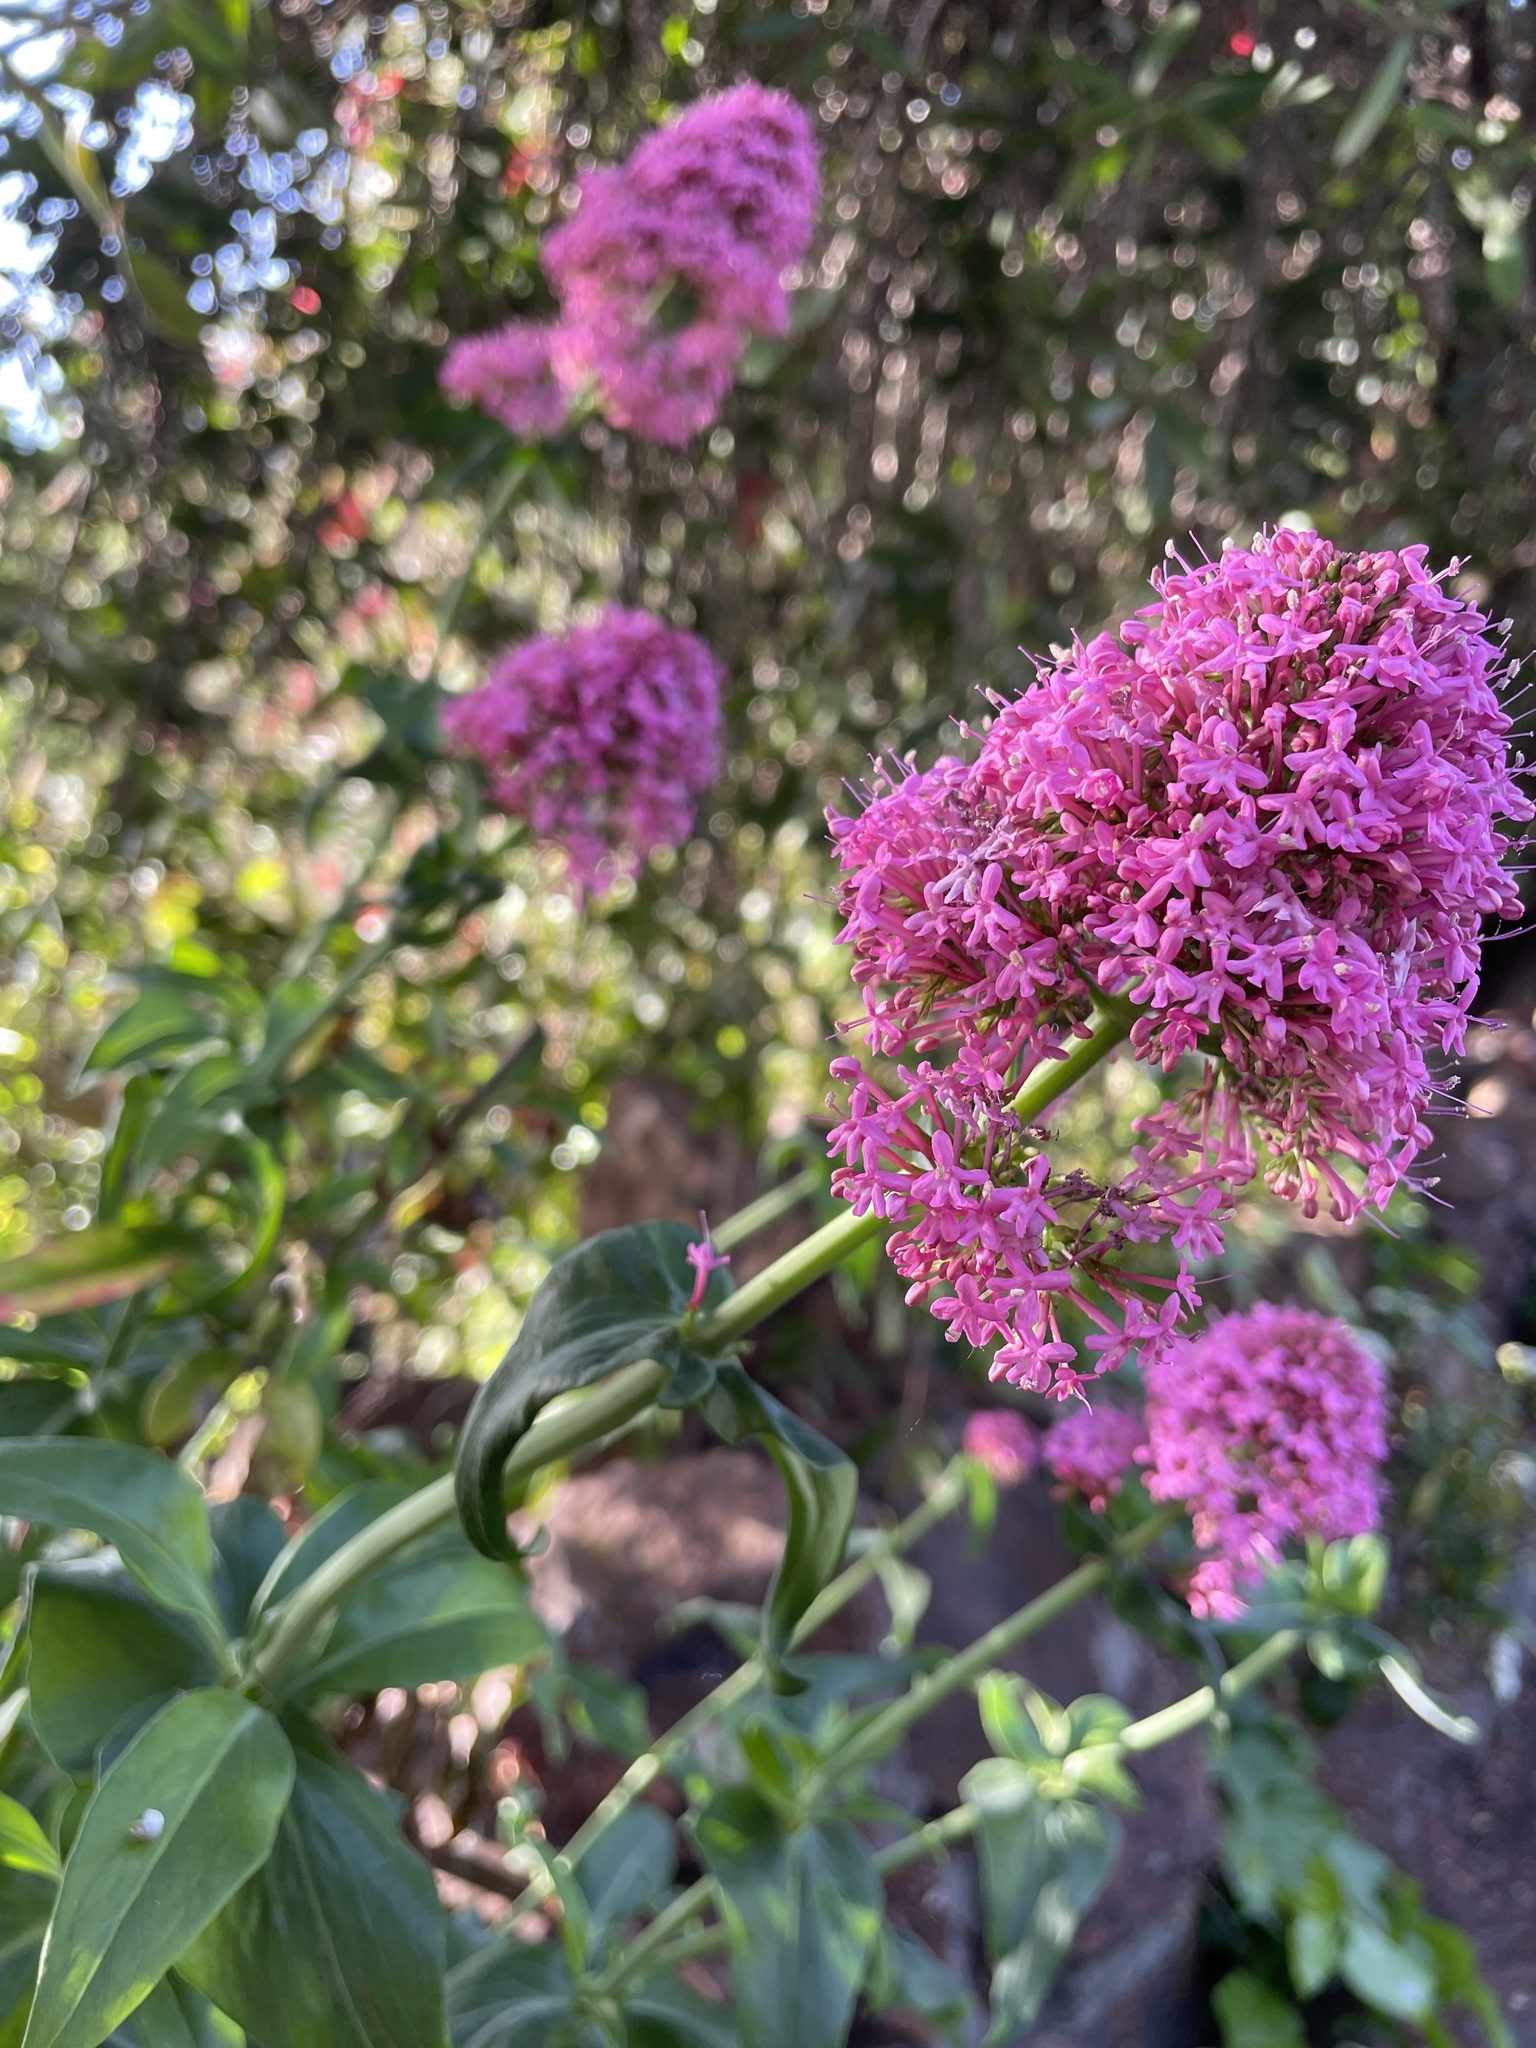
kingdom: Plantae
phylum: Tracheophyta
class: Magnoliopsida
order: Dipsacales
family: Caprifoliaceae
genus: Centranthus
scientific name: Centranthus ruber
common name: Red valerian
